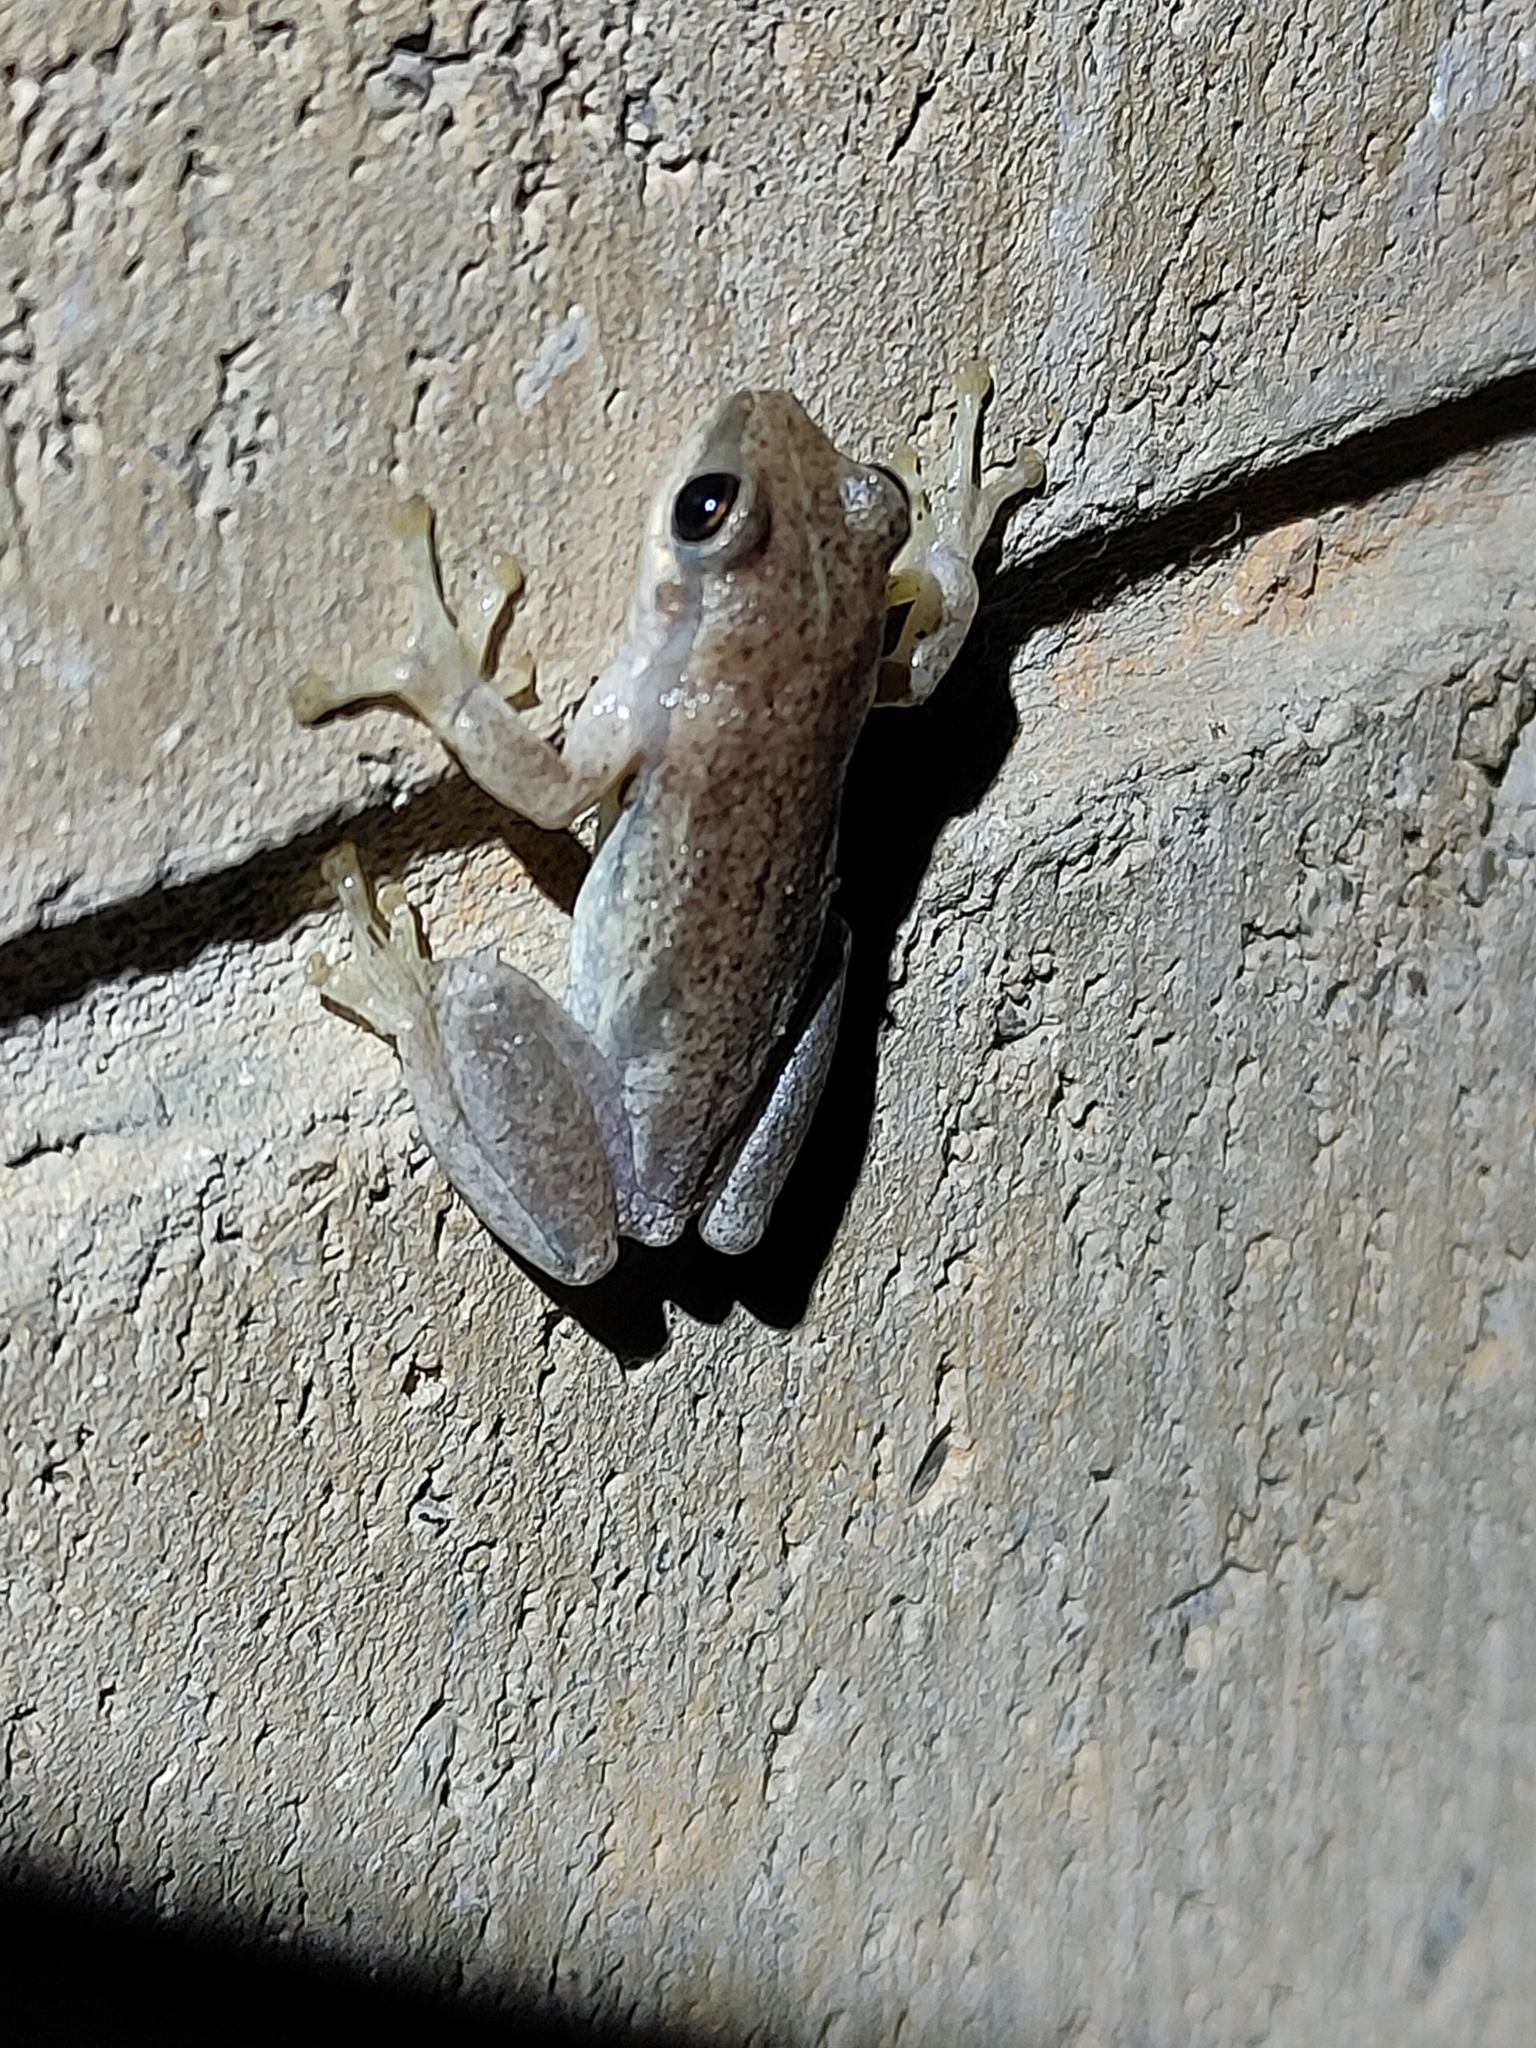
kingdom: Animalia
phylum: Chordata
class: Amphibia
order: Anura
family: Pelodryadidae
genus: Litoria
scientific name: Litoria rubella
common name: Desert tree frog
